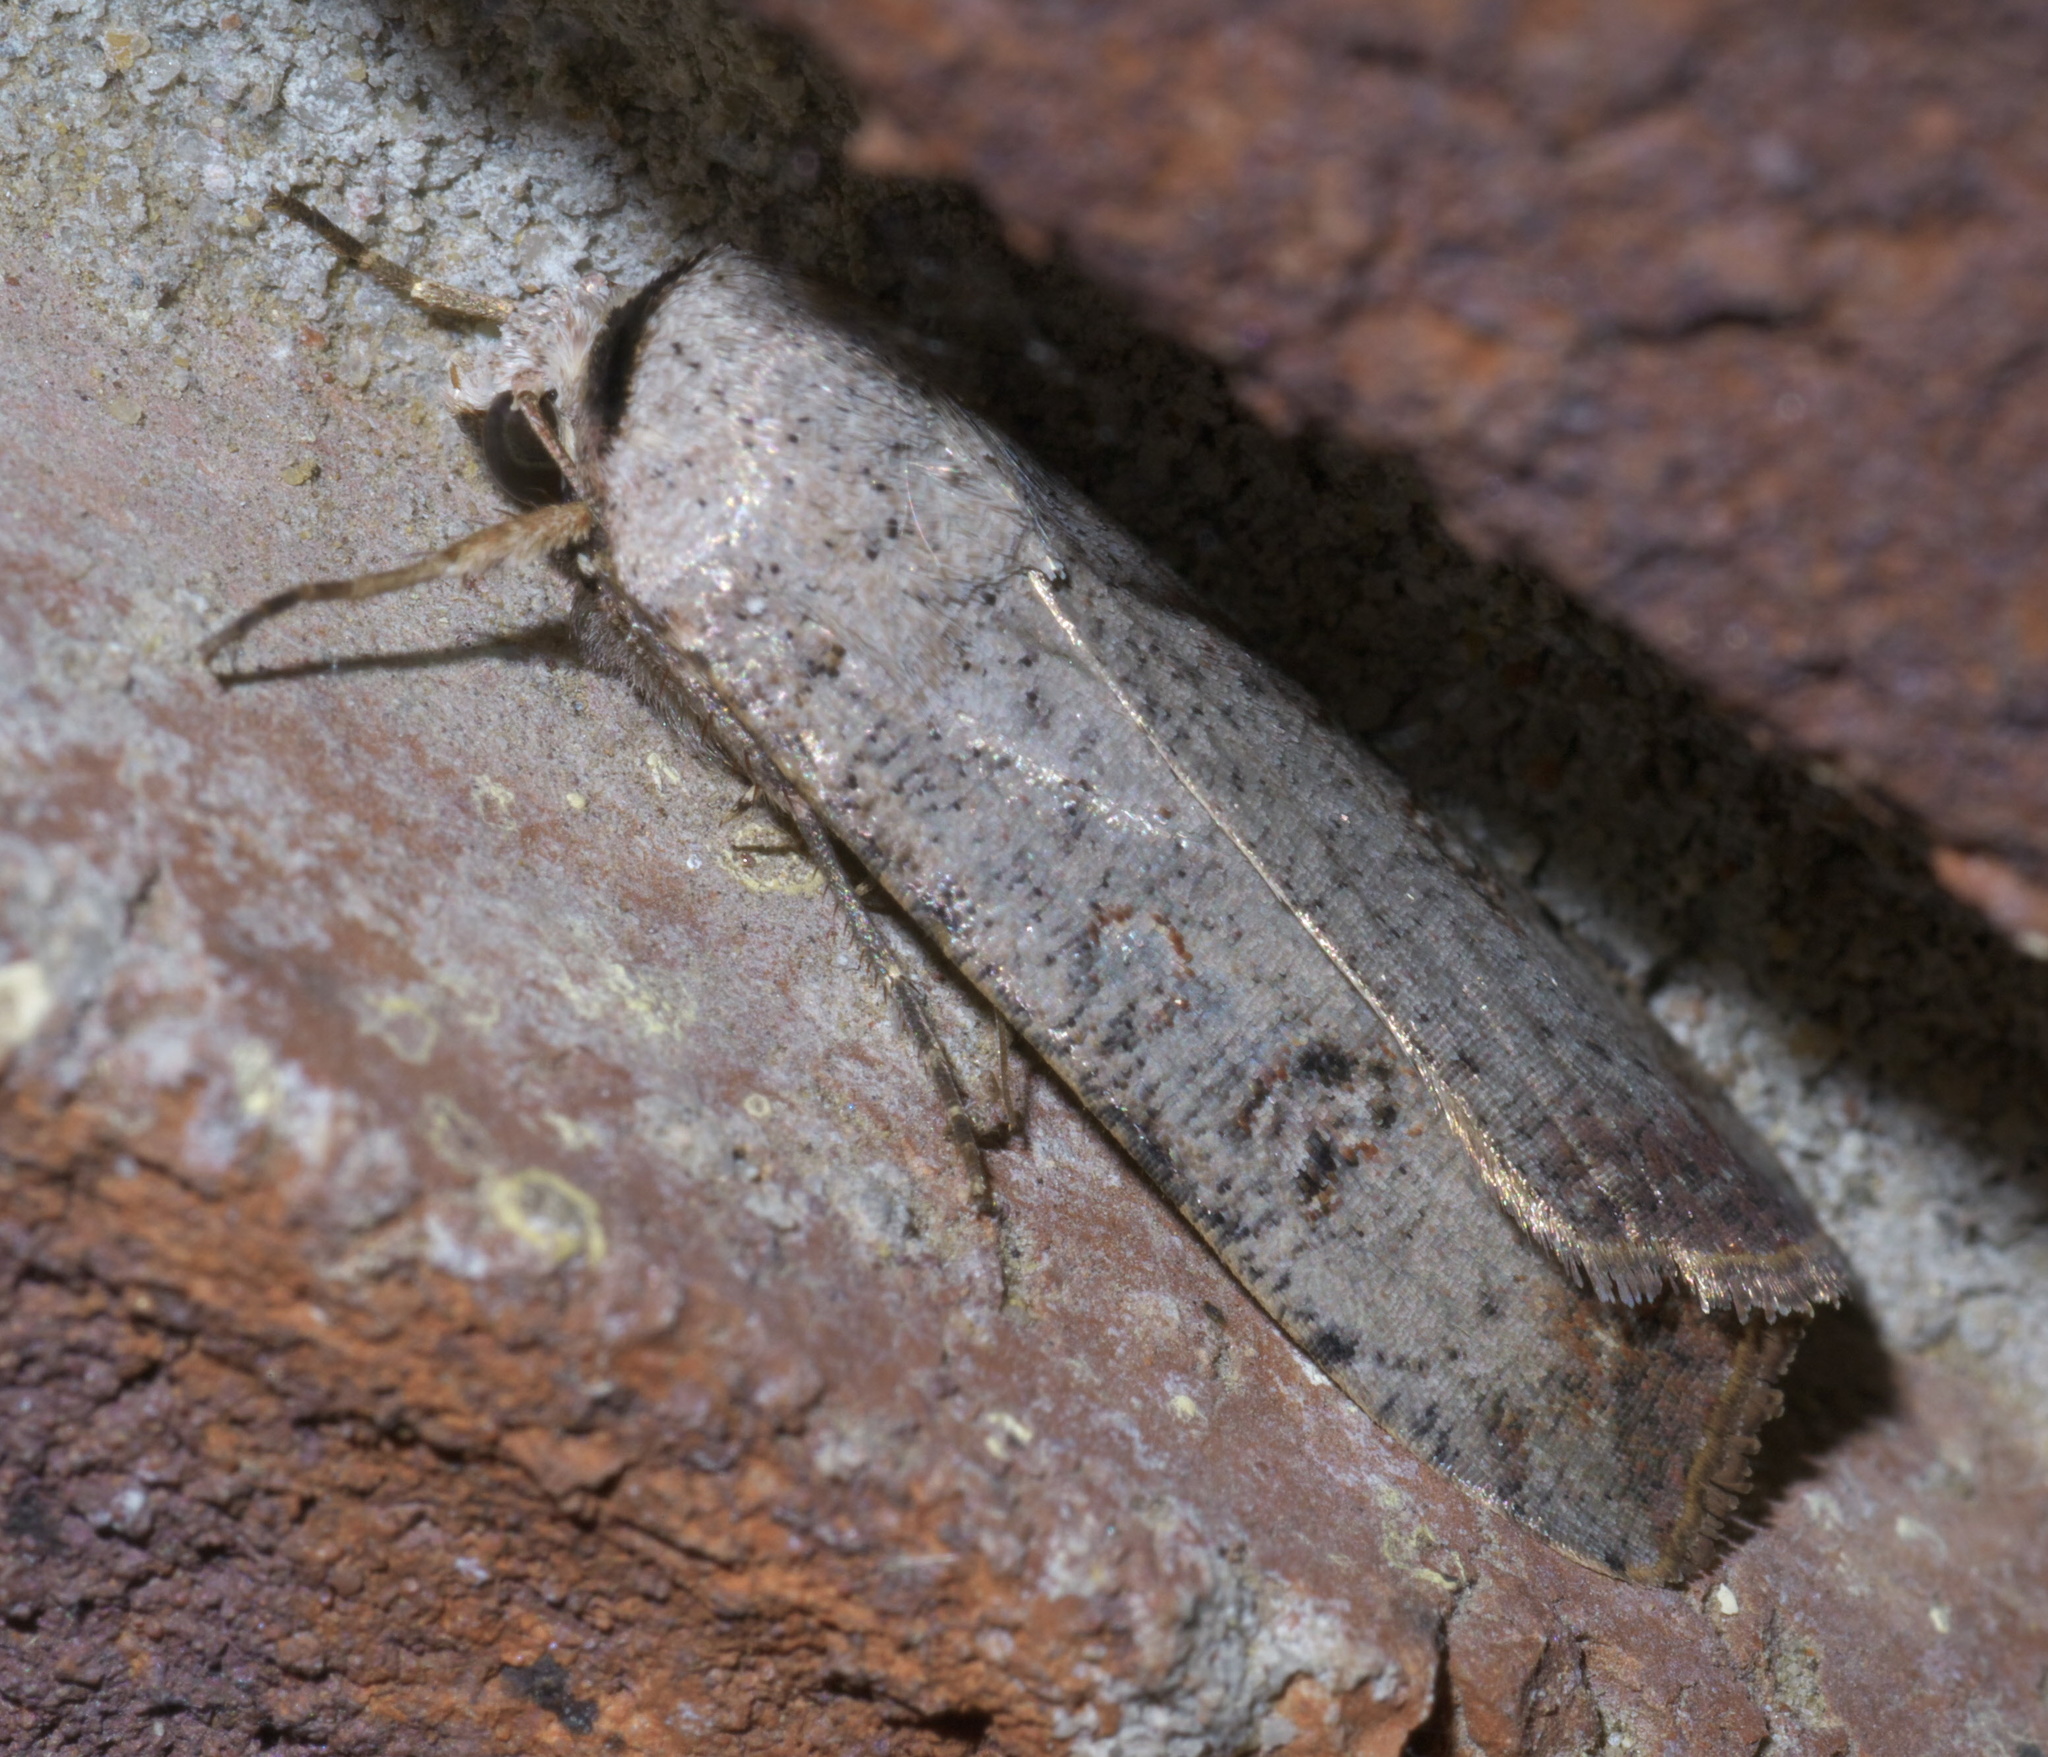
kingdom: Animalia
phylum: Arthropoda
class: Insecta
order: Lepidoptera
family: Noctuidae
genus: Anicla
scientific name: Anicla infecta
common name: Green cutworm
